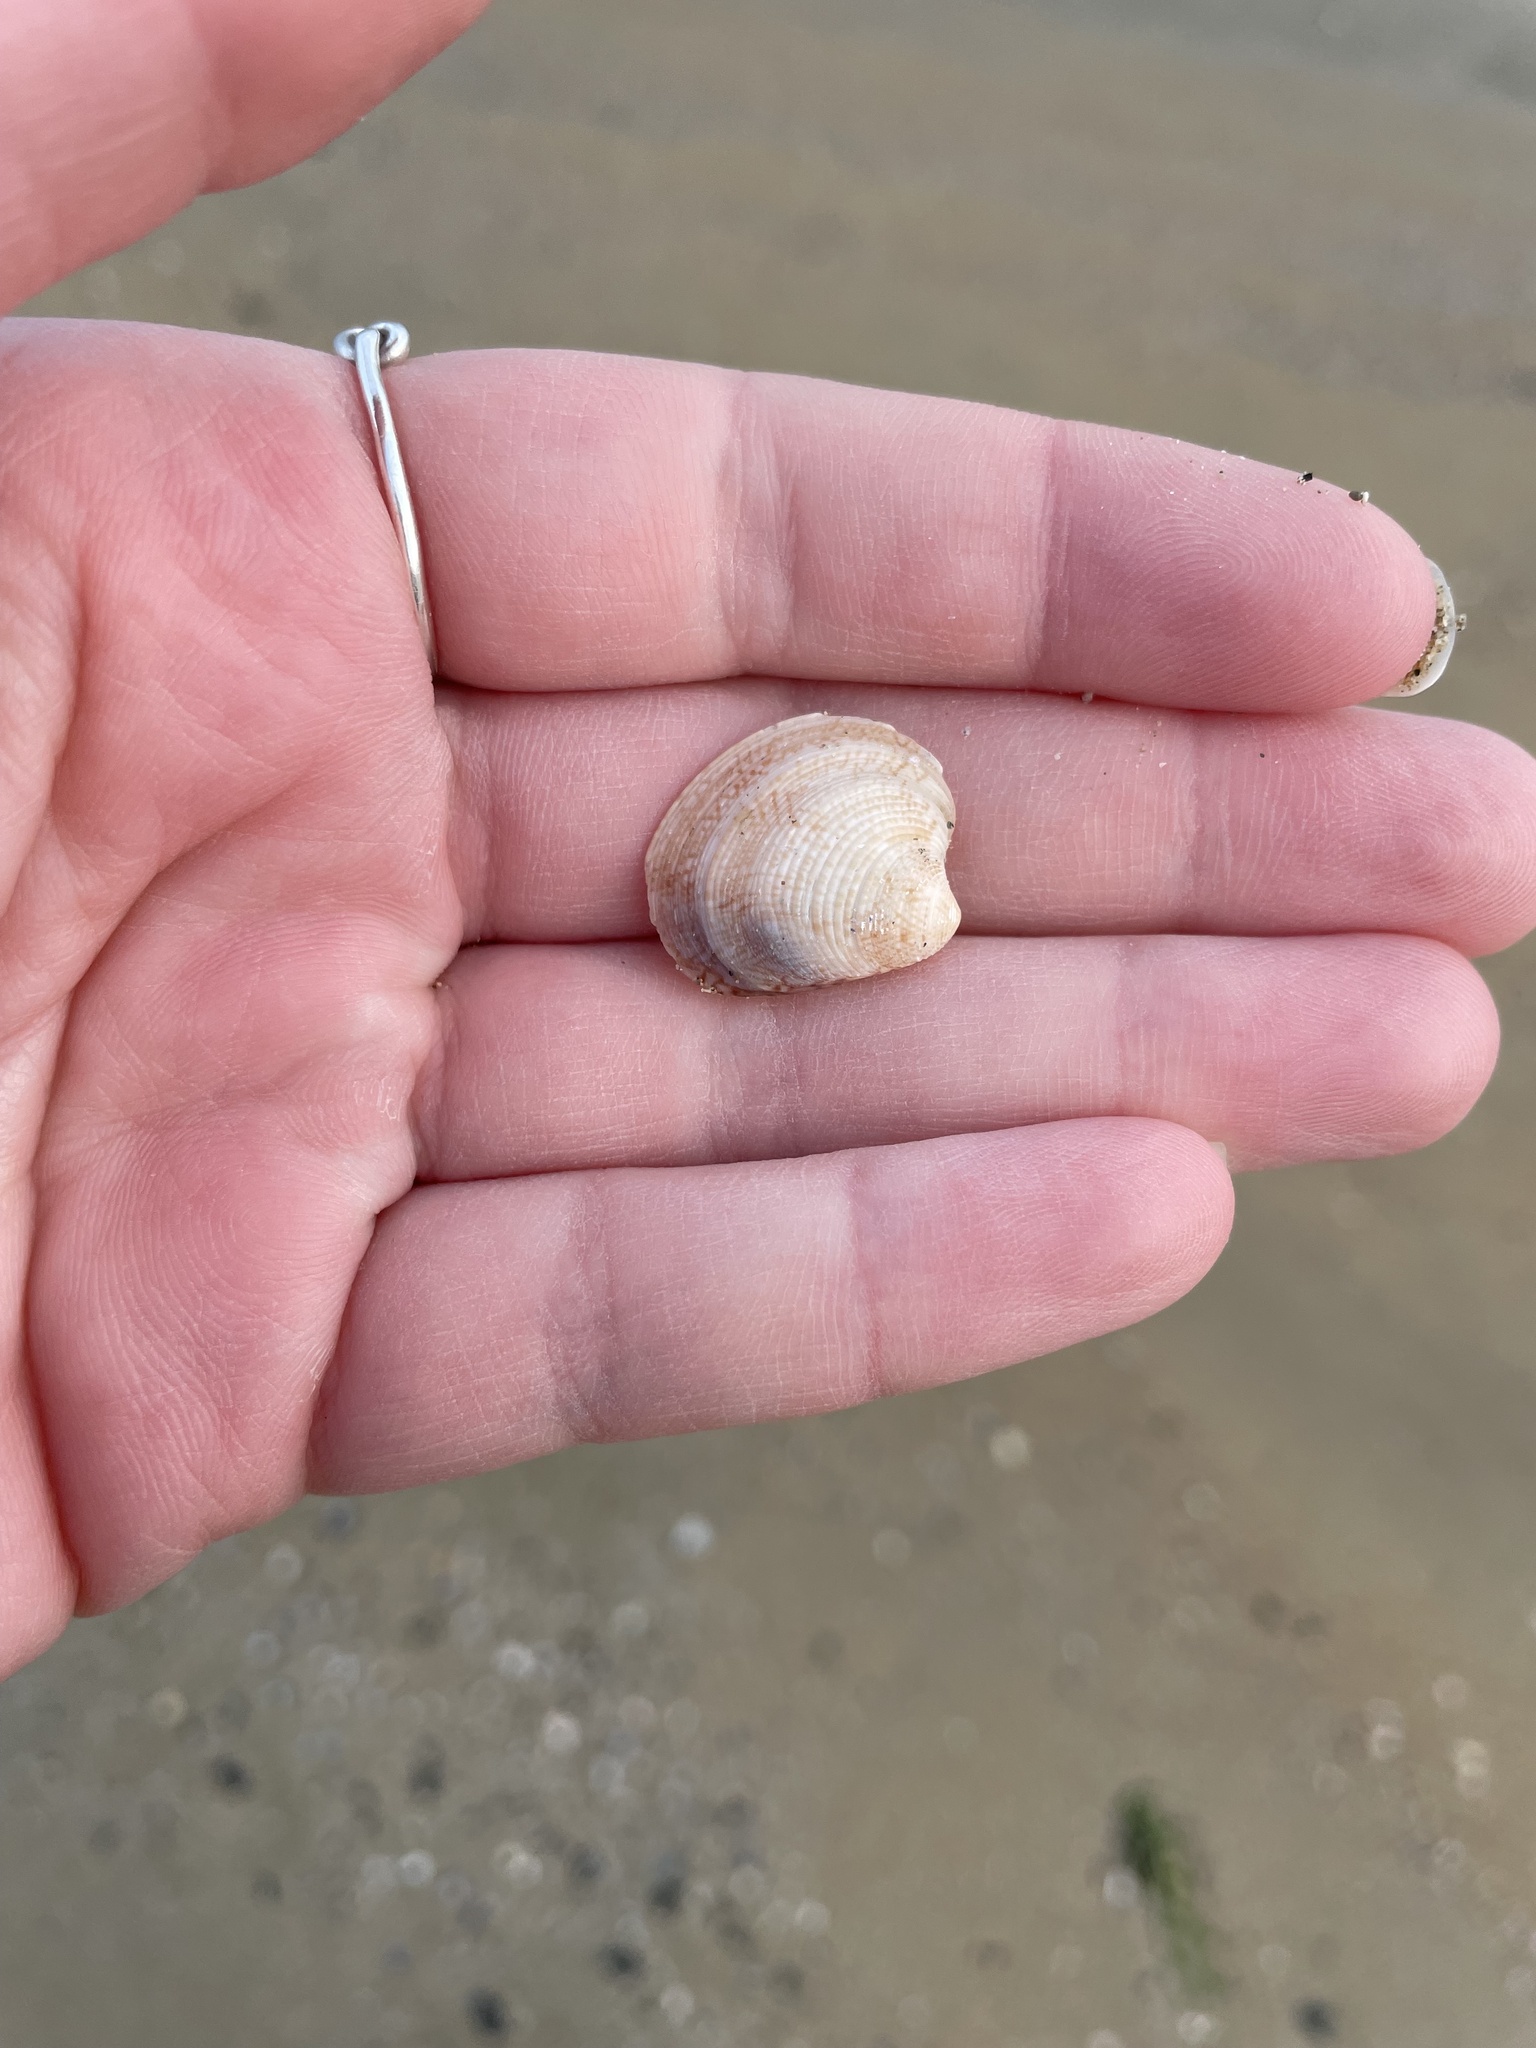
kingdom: Animalia
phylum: Mollusca
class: Bivalvia
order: Venerida
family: Veneridae
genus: Chamelea
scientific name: Chamelea gallina
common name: Chicken venus
